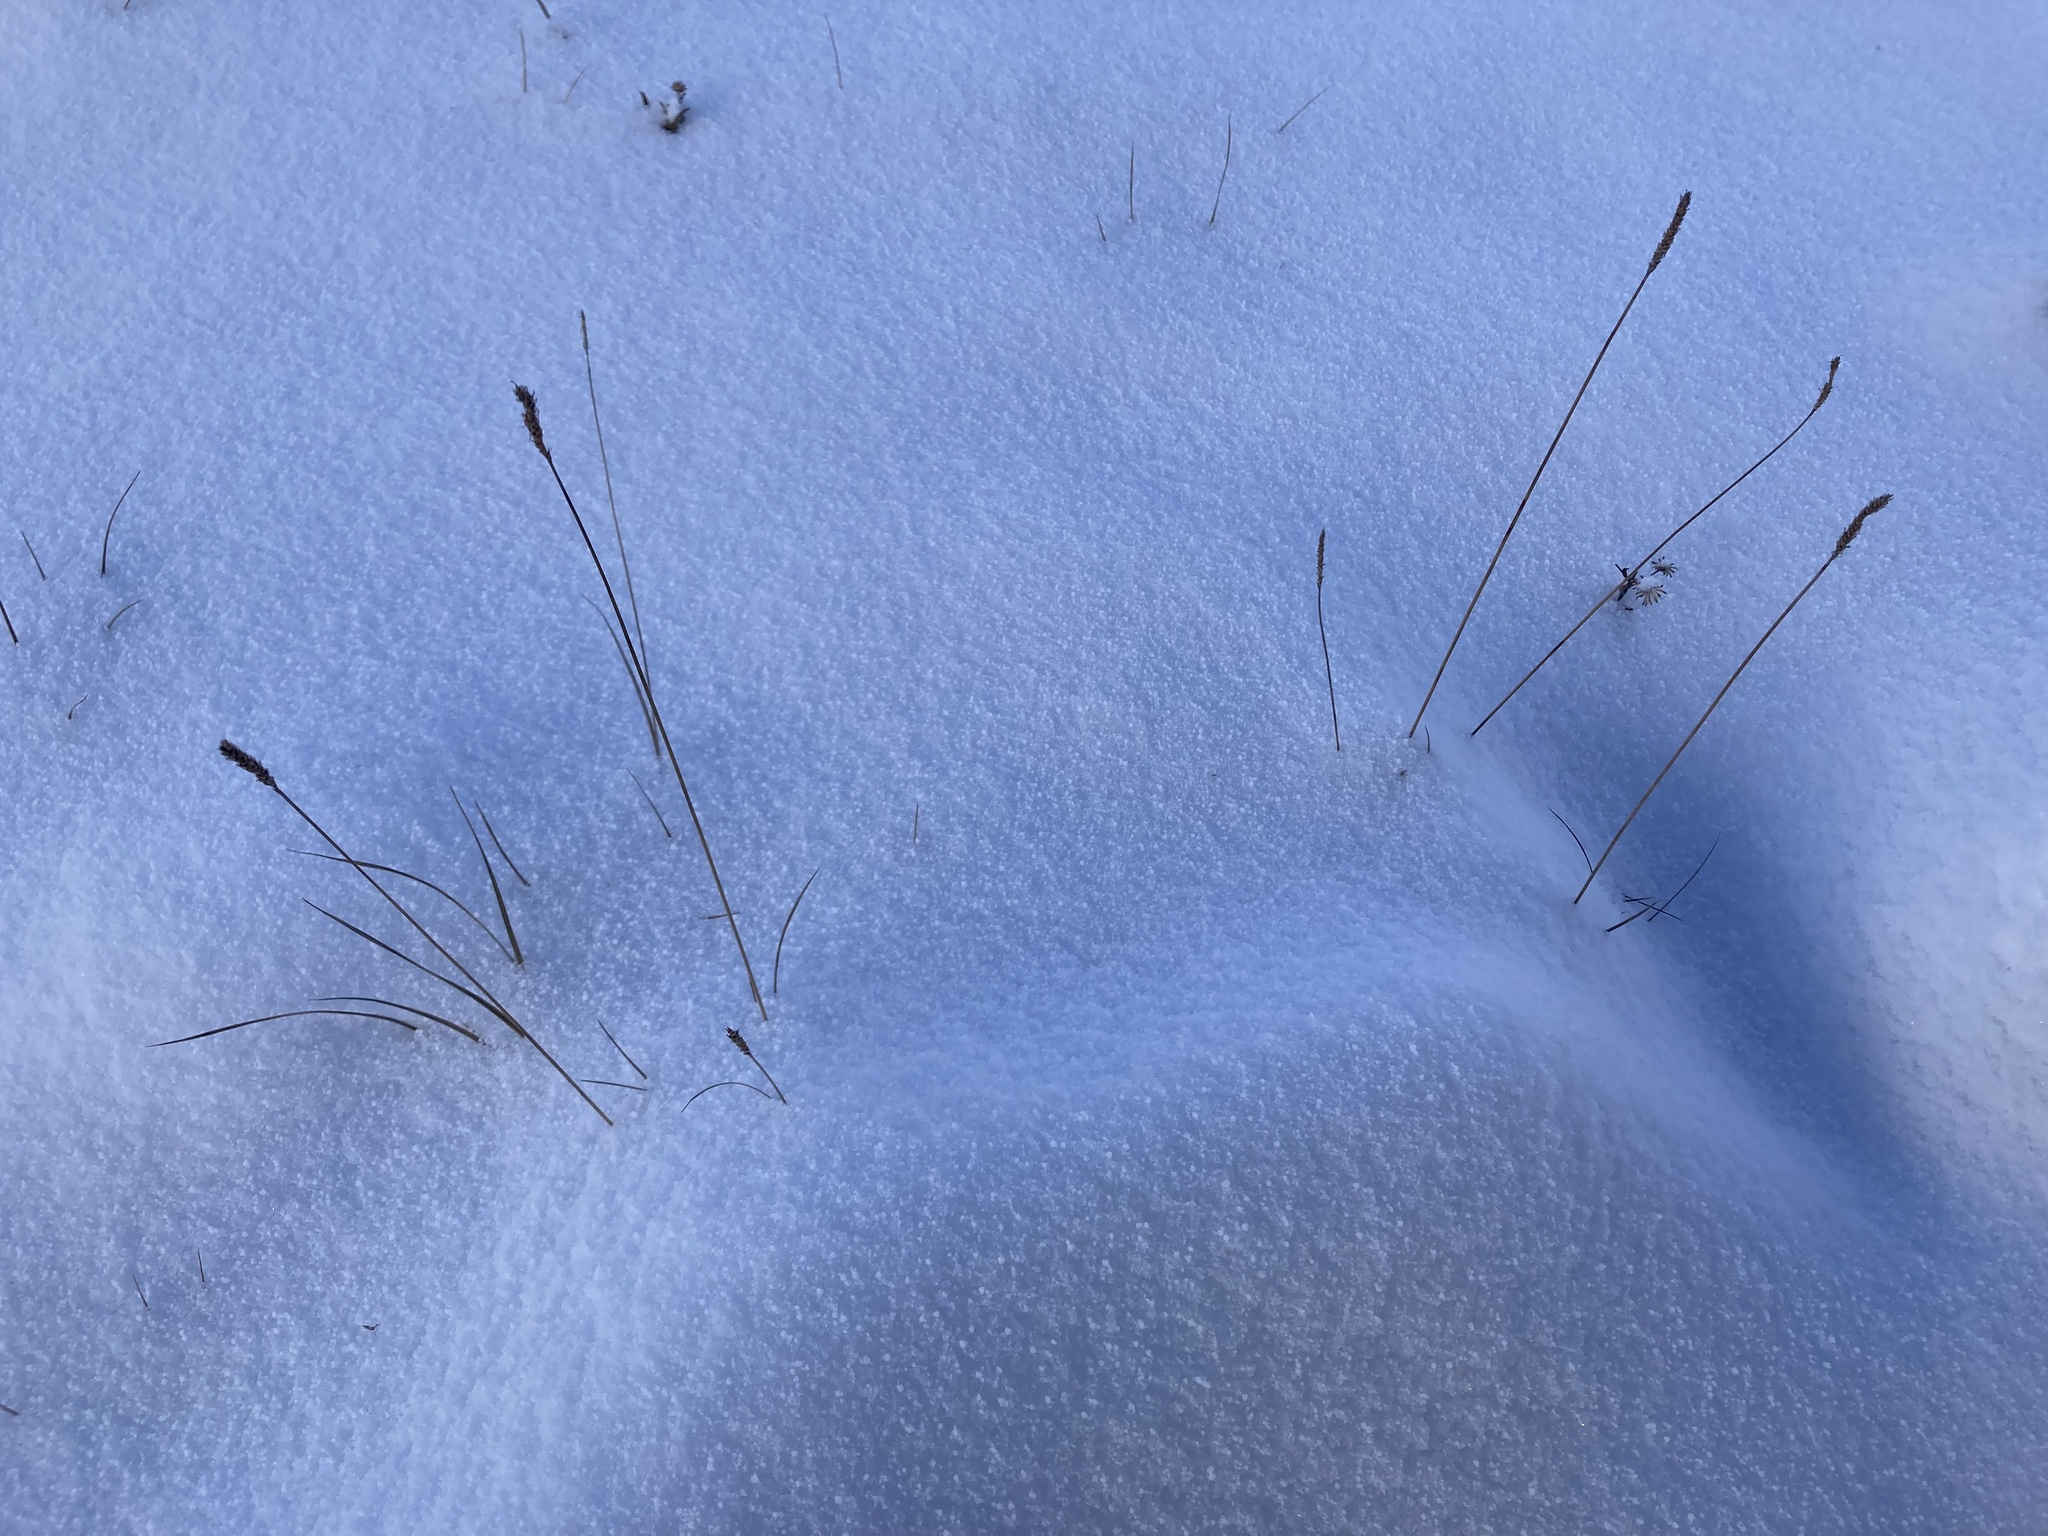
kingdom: Plantae
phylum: Tracheophyta
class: Liliopsida
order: Poales
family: Cyperaceae
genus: Carex
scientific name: Carex scirpoidea
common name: Canada single-spike sedge
